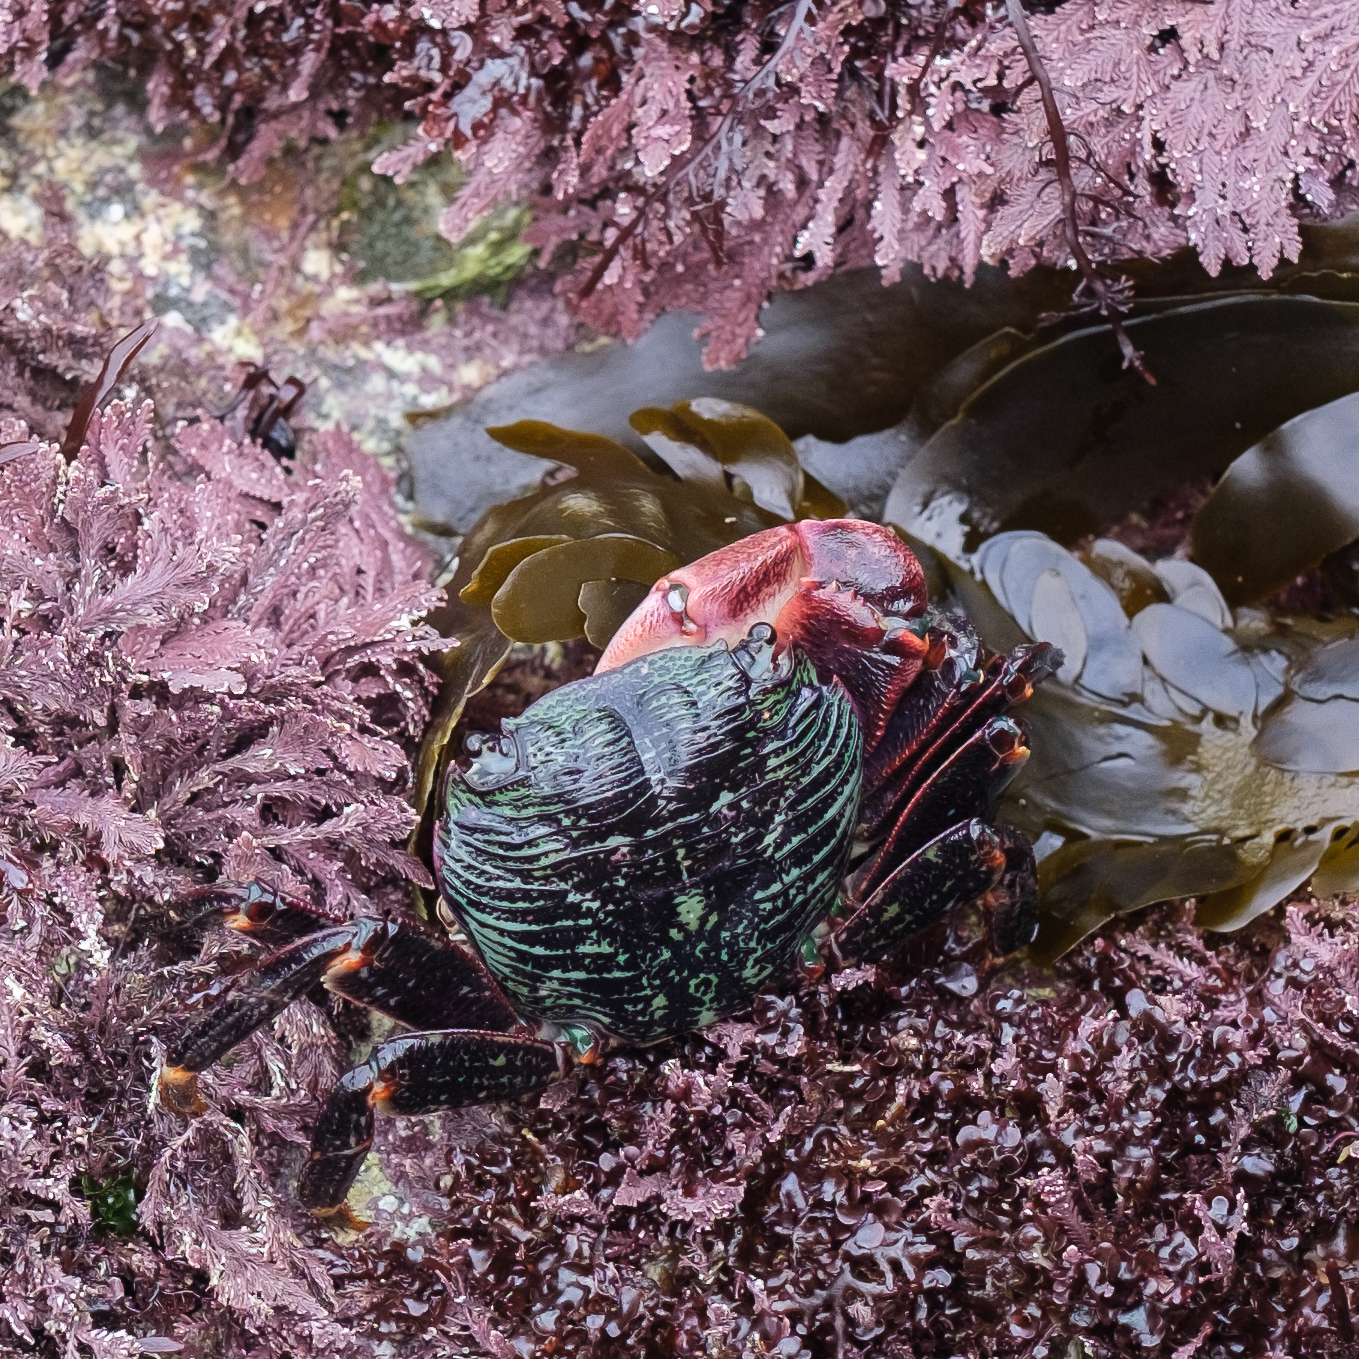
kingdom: Animalia
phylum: Arthropoda
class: Malacostraca
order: Decapoda
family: Grapsidae
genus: Pachygrapsus
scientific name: Pachygrapsus crassipes
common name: Striped shore crab
